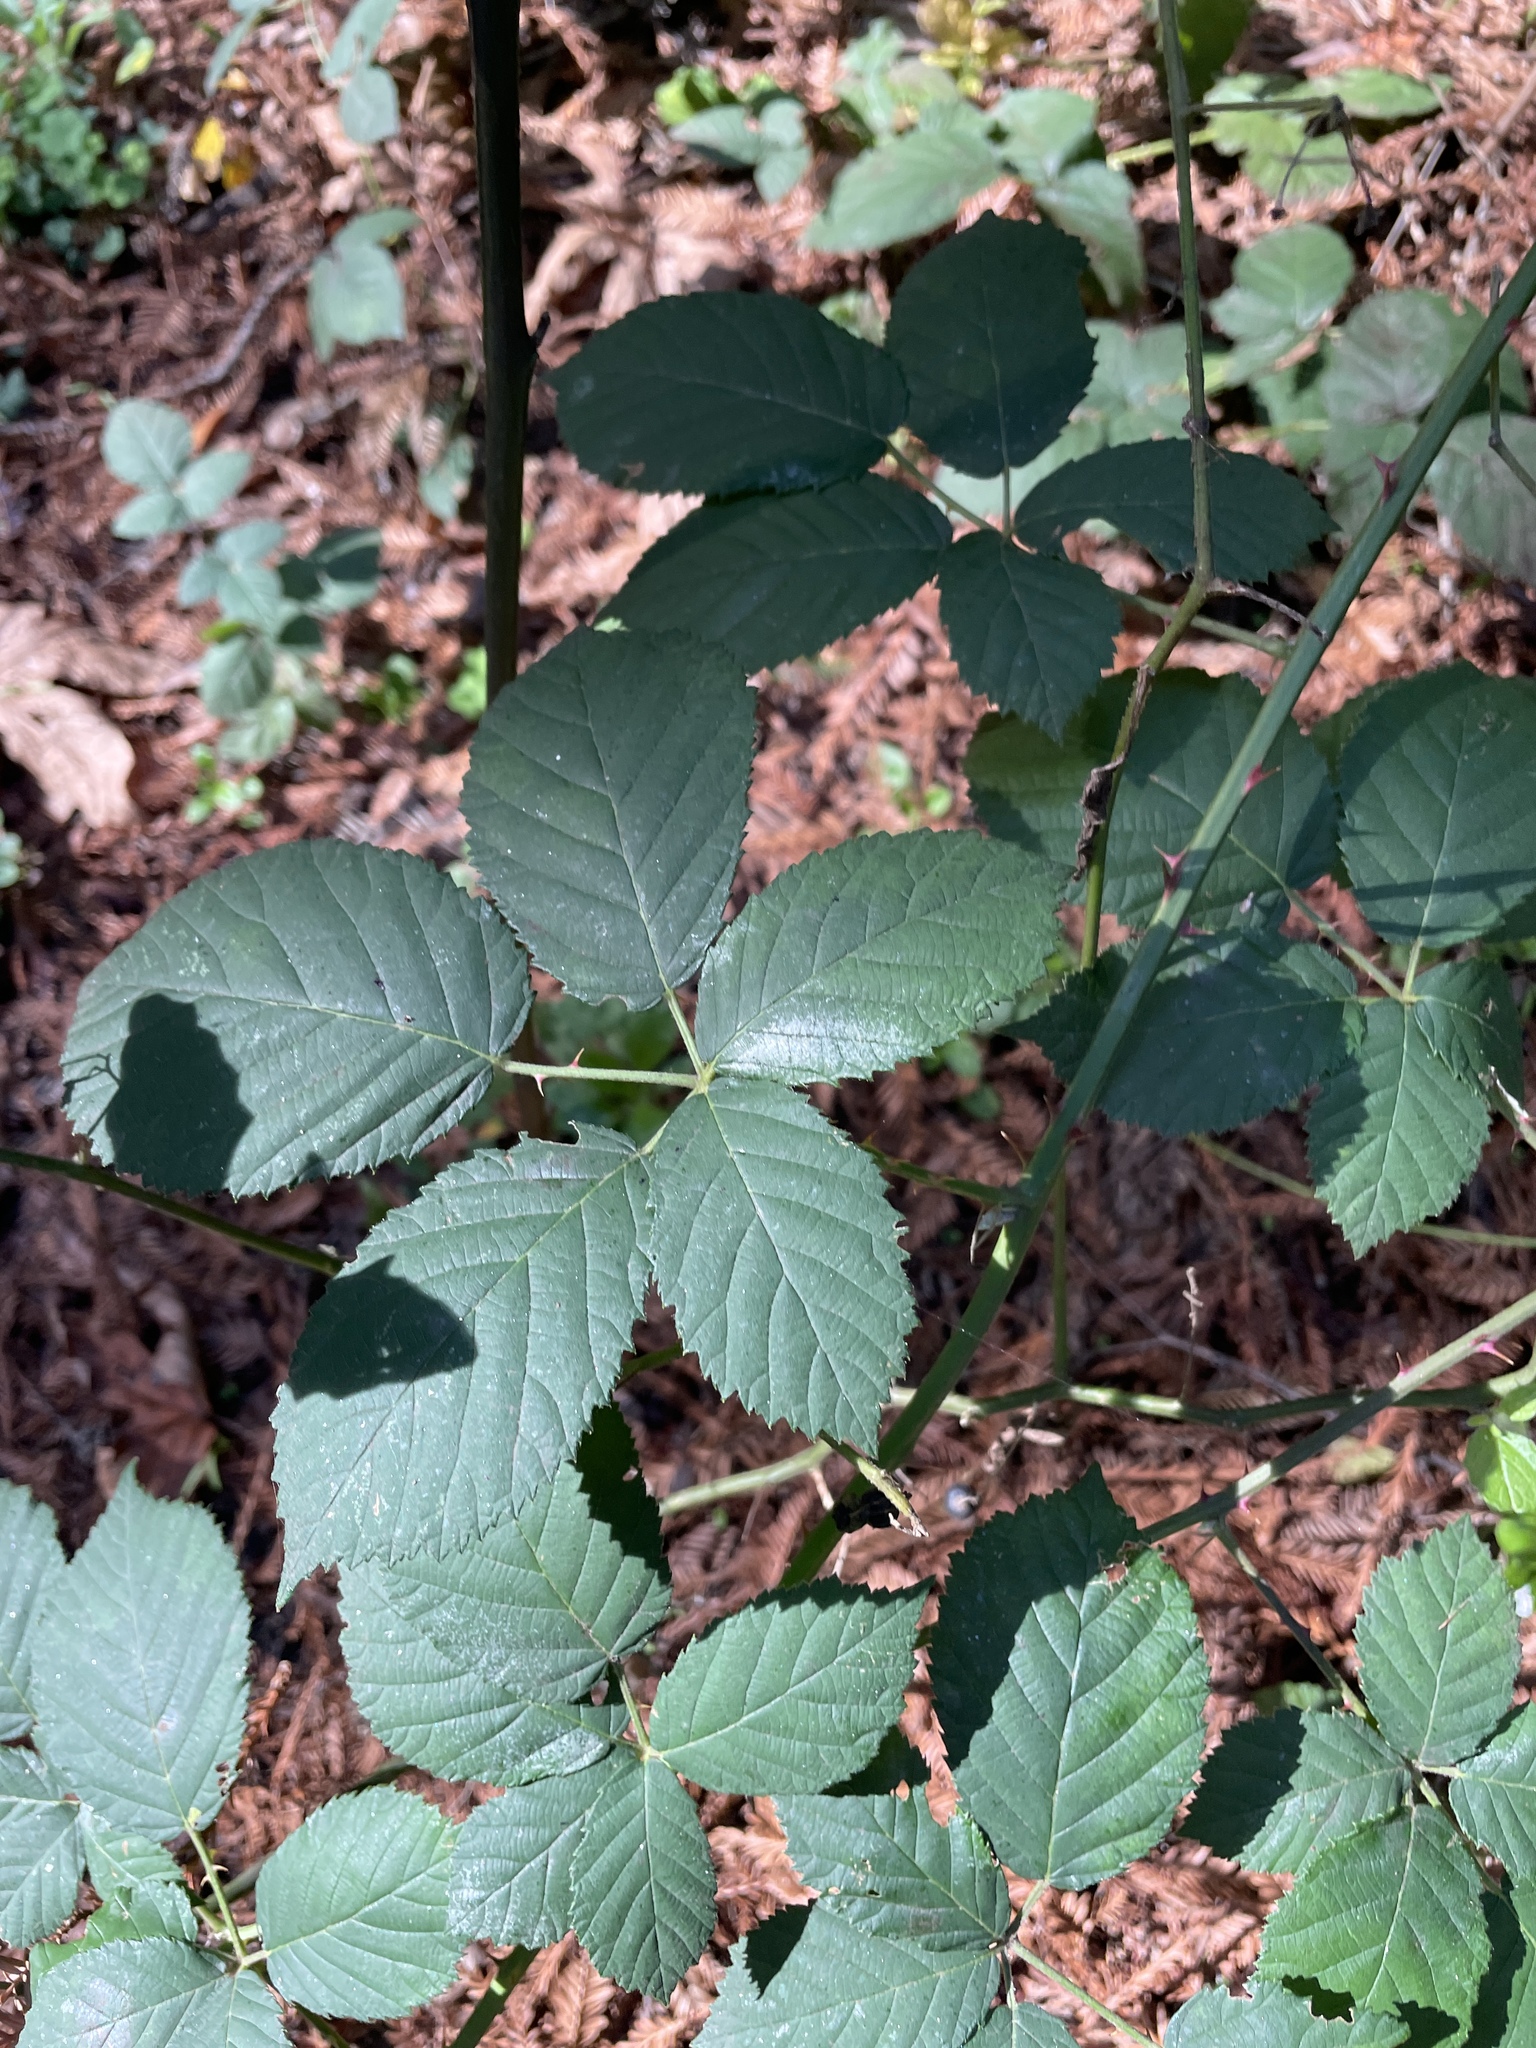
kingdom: Plantae
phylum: Tracheophyta
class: Magnoliopsida
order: Rosales
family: Rosaceae
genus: Rubus
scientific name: Rubus armeniacus
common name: Himalayan blackberry
